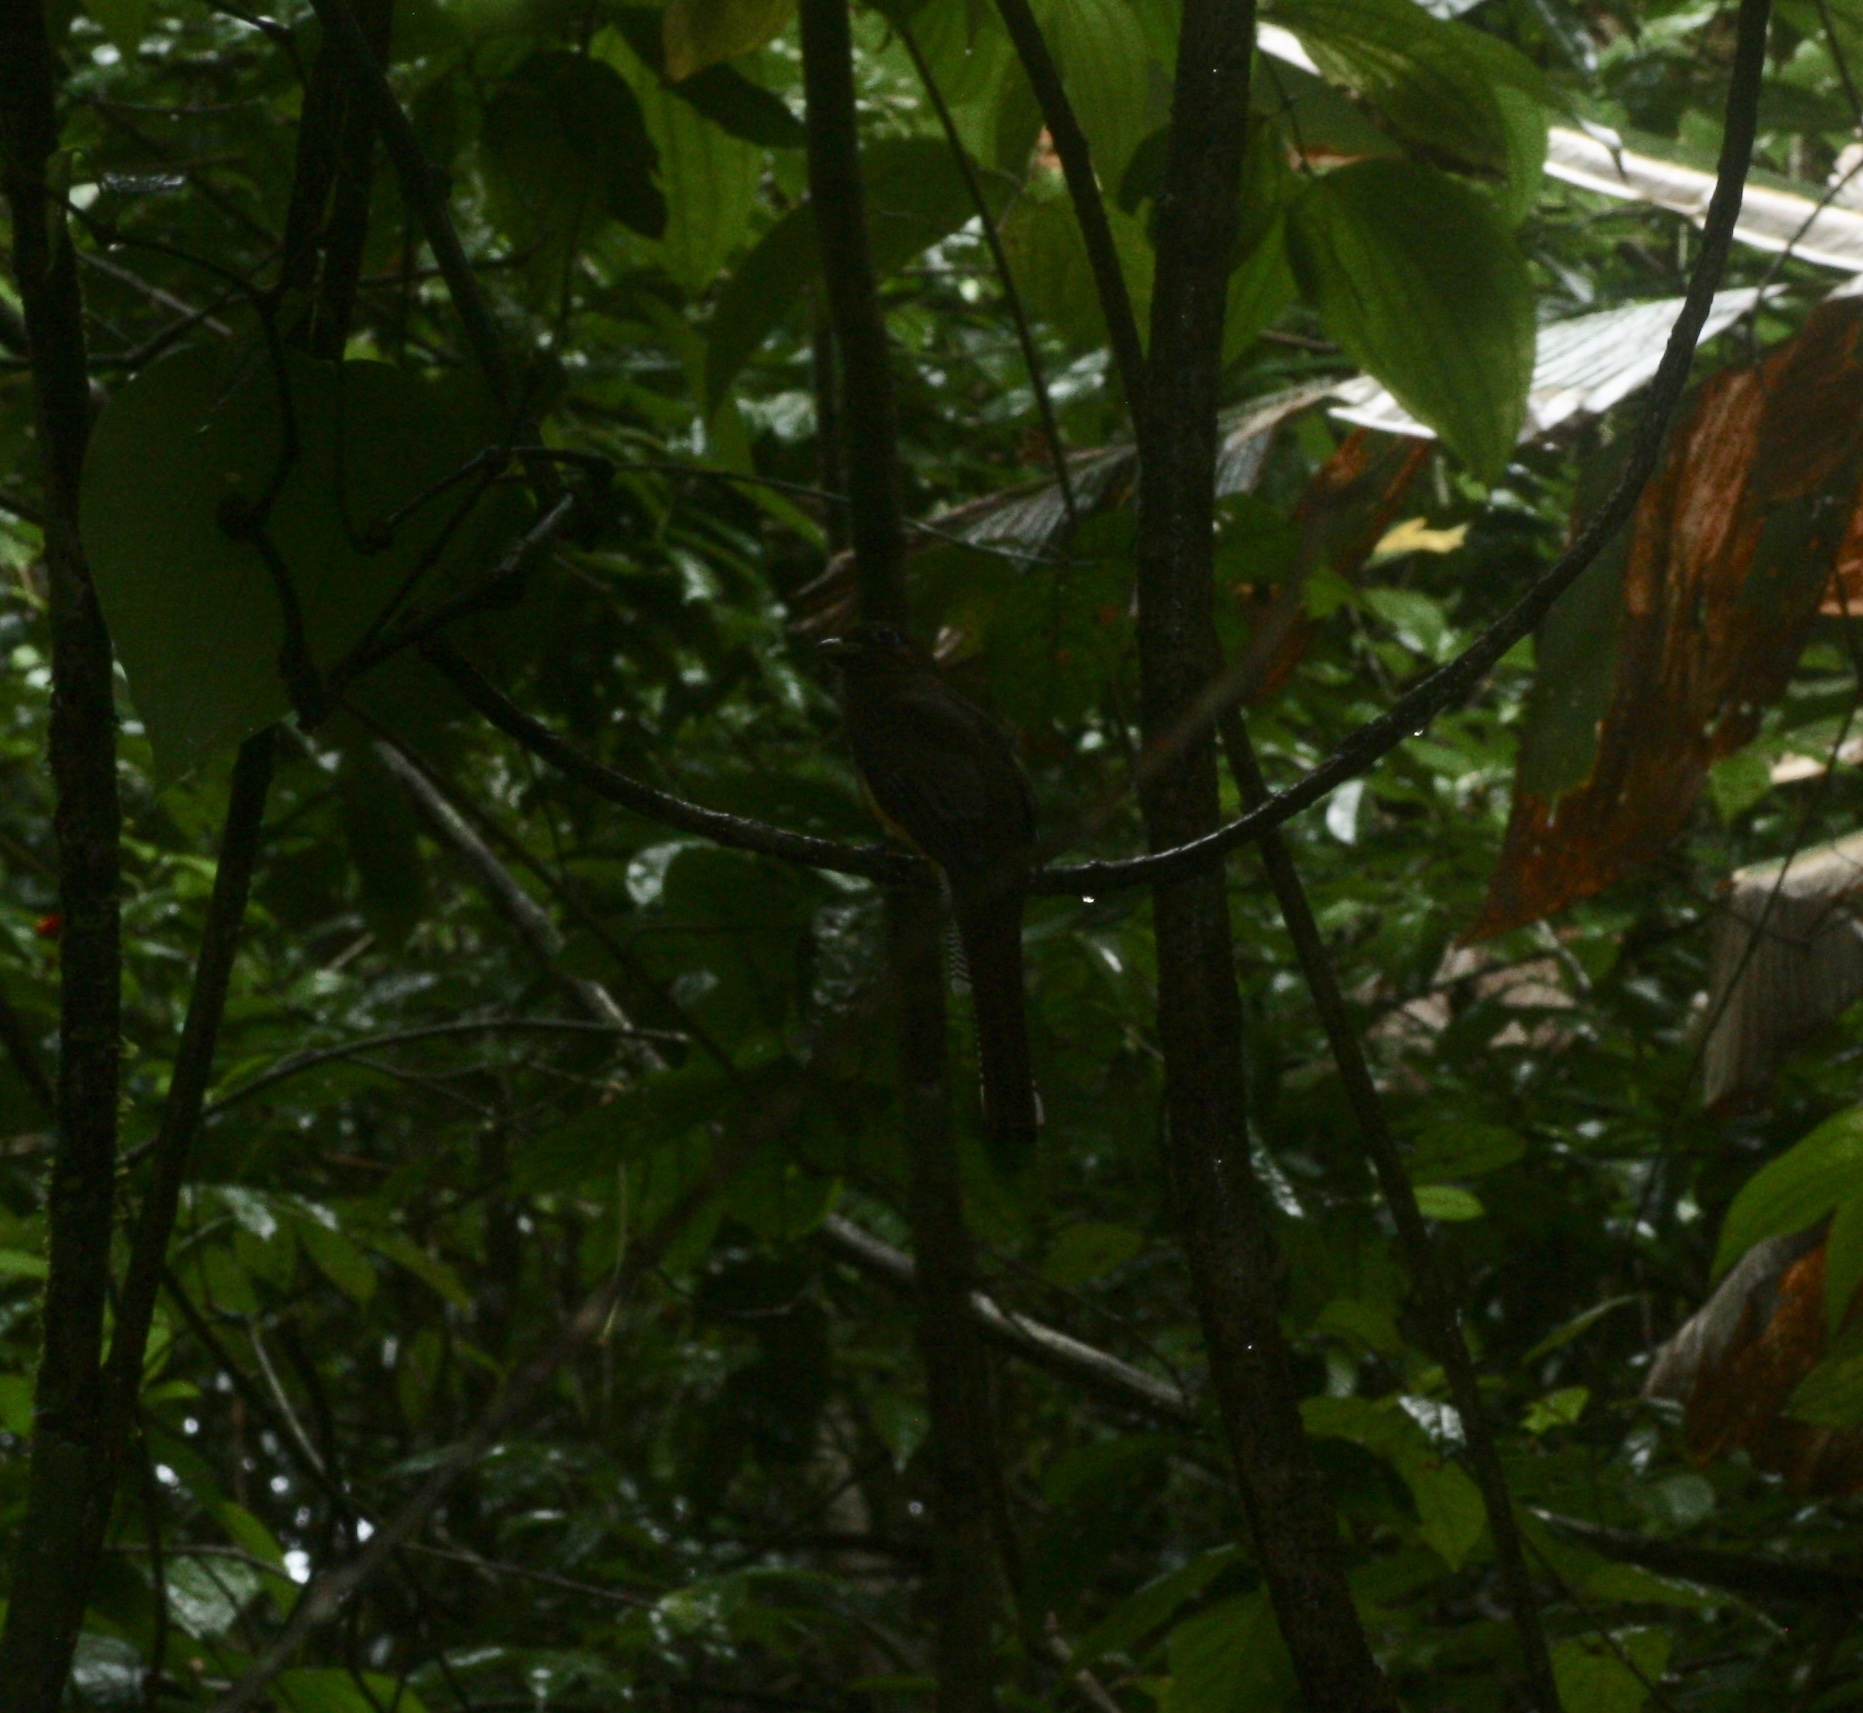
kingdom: Animalia
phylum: Chordata
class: Aves
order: Trogoniformes
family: Trogonidae
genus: Trogon
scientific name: Trogon rufus
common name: Black-throated trogon
